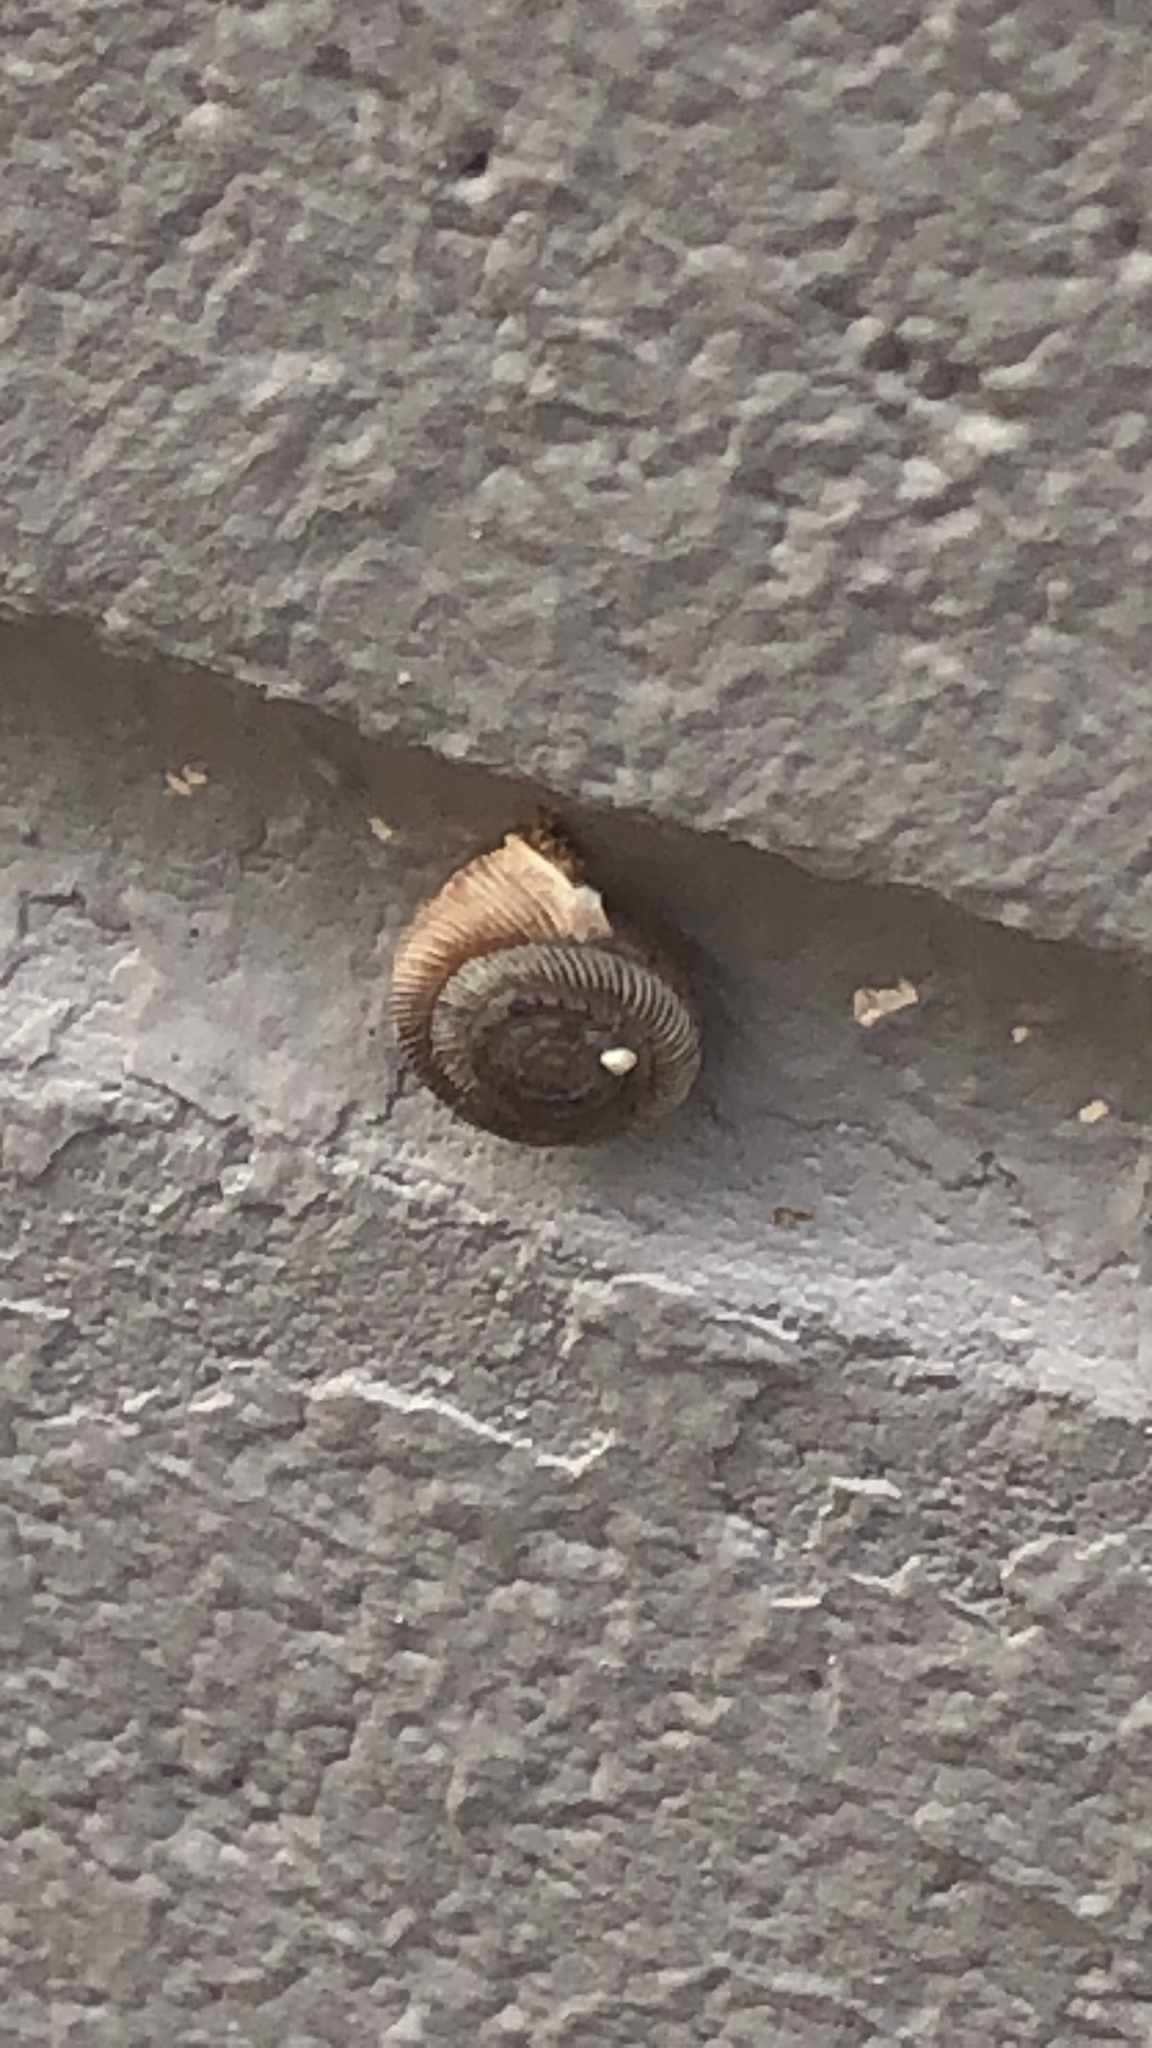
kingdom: Animalia
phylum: Mollusca
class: Gastropoda
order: Stylommatophora
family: Polygyridae
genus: Polygyra
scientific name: Polygyra cereolus
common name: Southern flatcone snail
